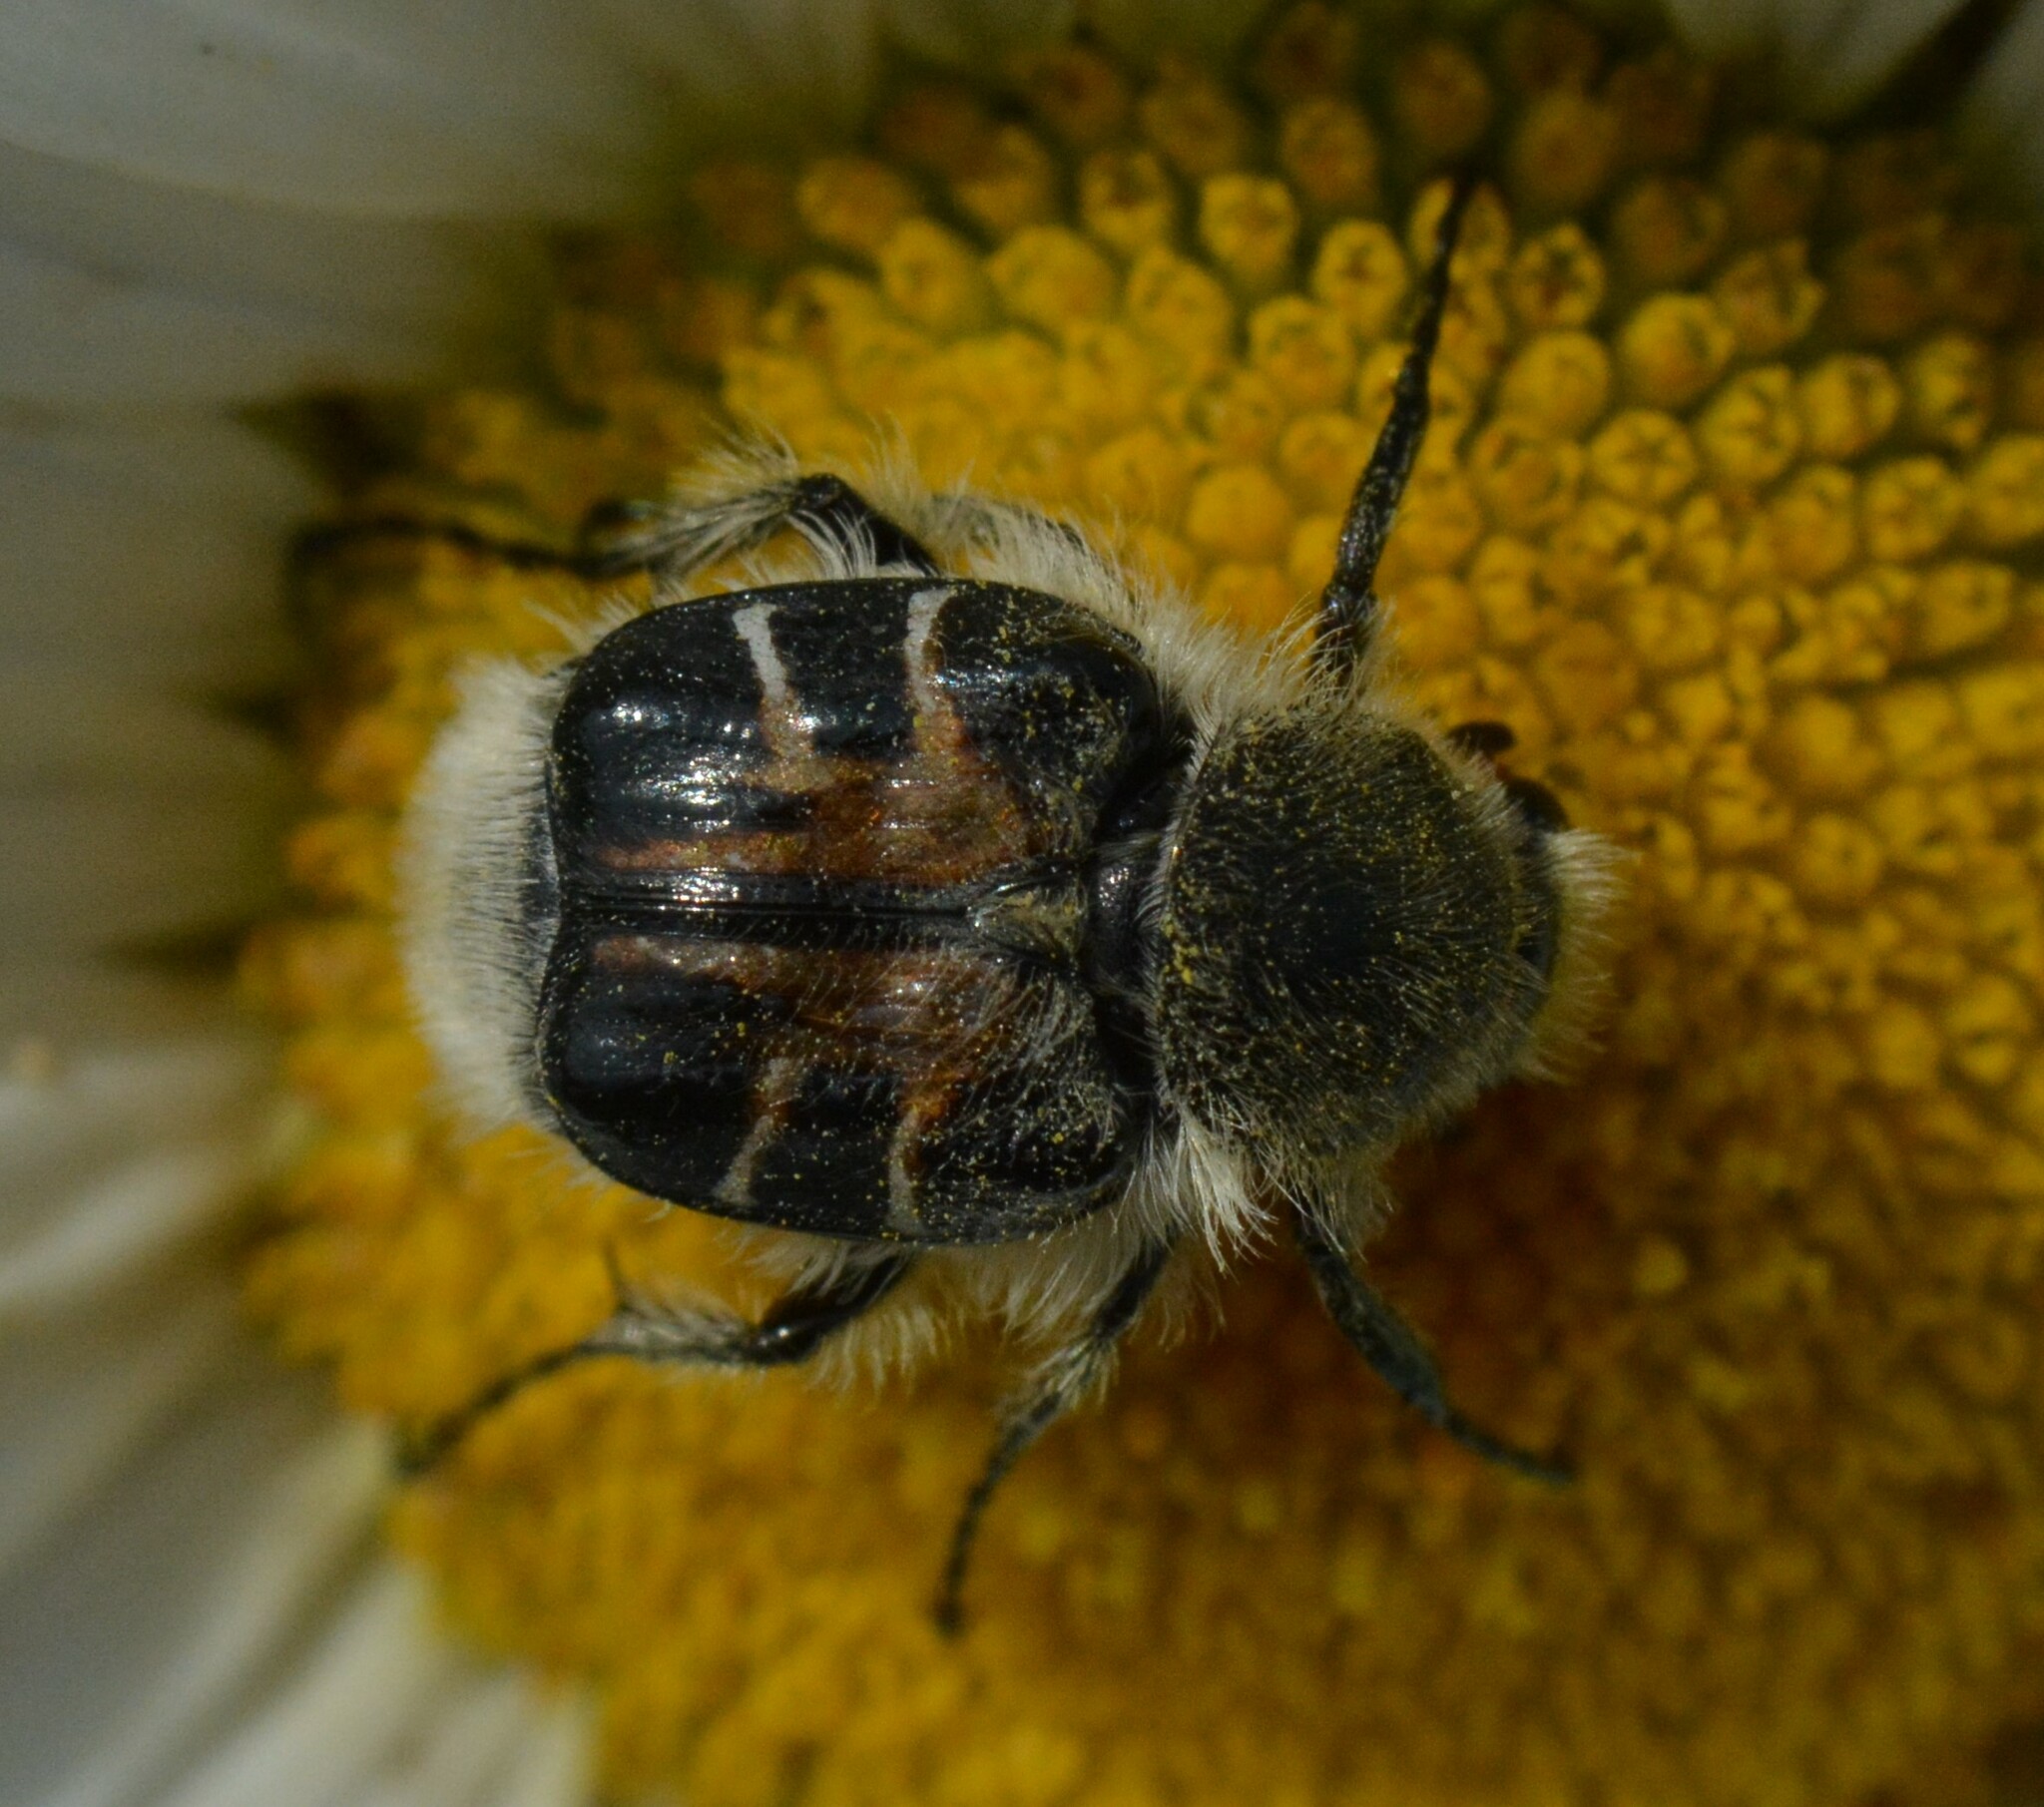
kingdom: Animalia
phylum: Arthropoda
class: Insecta
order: Coleoptera
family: Scarabaeidae
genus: Trichiotinus
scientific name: Trichiotinus assimilis
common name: Bee-mimic beetle
